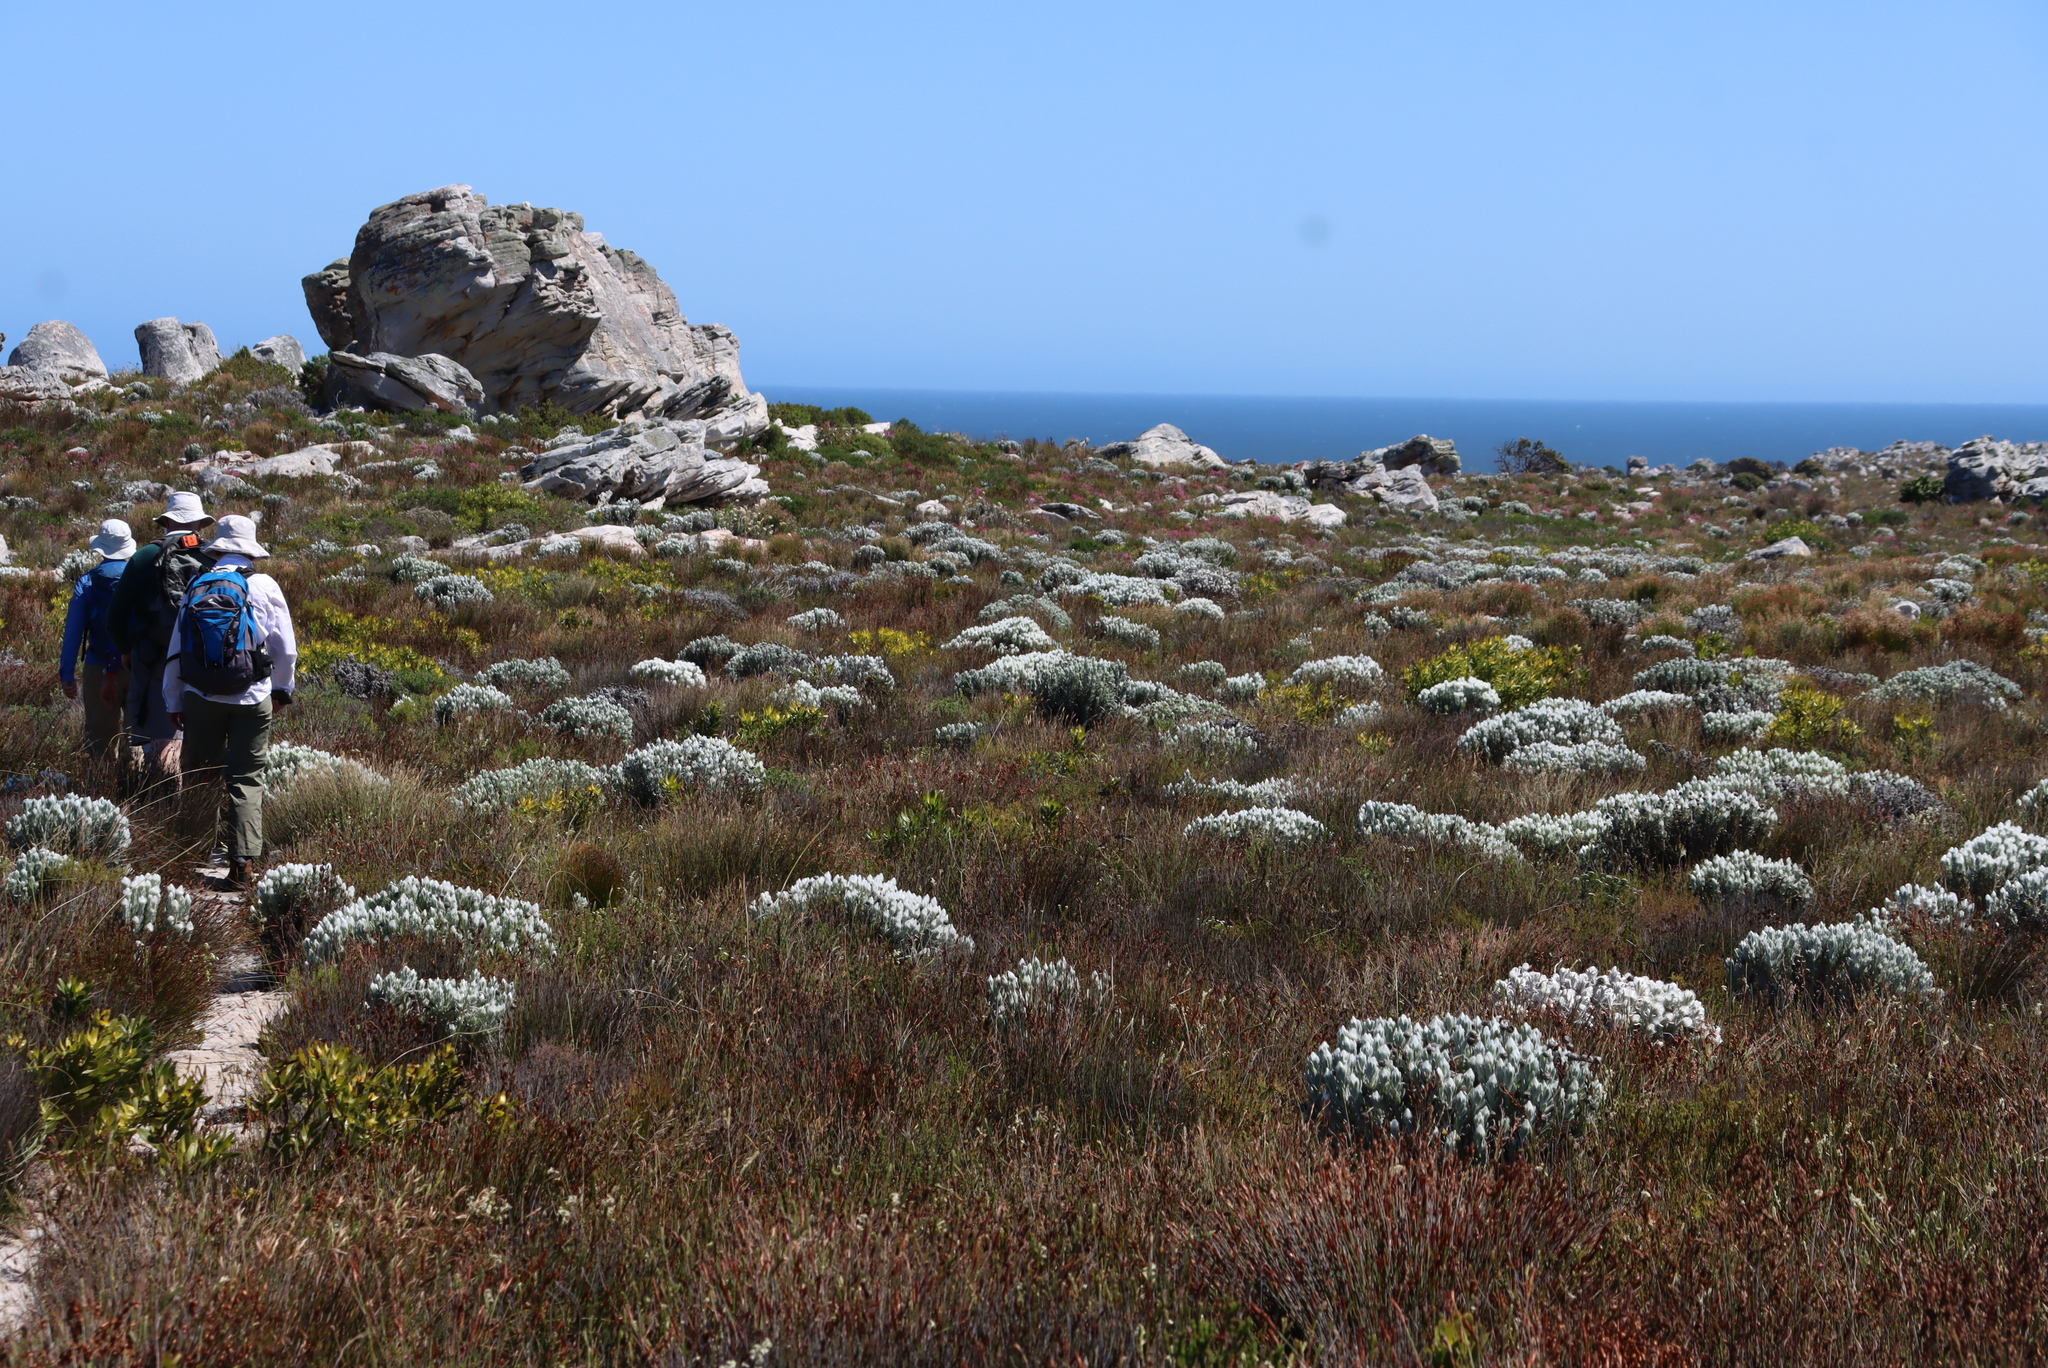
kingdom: Plantae
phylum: Tracheophyta
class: Magnoliopsida
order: Asterales
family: Asteraceae
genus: Syncarpha
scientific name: Syncarpha vestita
